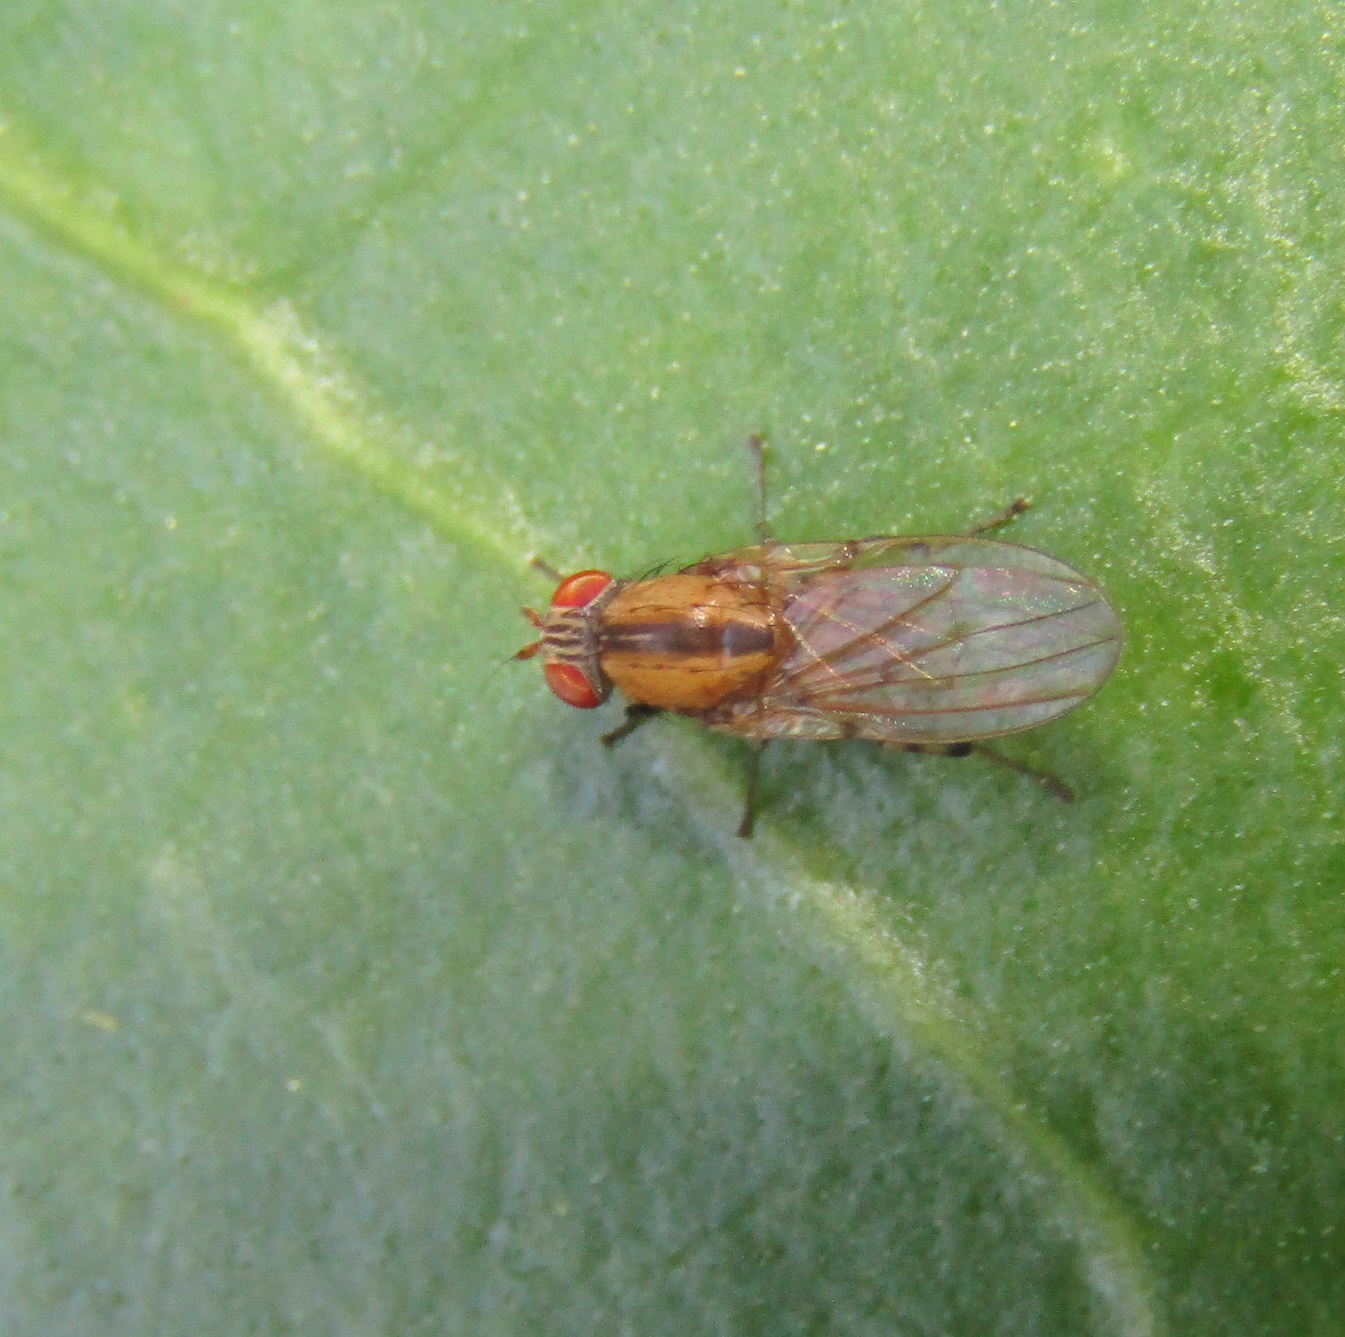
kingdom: Animalia
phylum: Arthropoda
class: Insecta
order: Diptera
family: Lauxaniidae
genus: Sapromyza
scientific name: Sapromyza neozelandica
